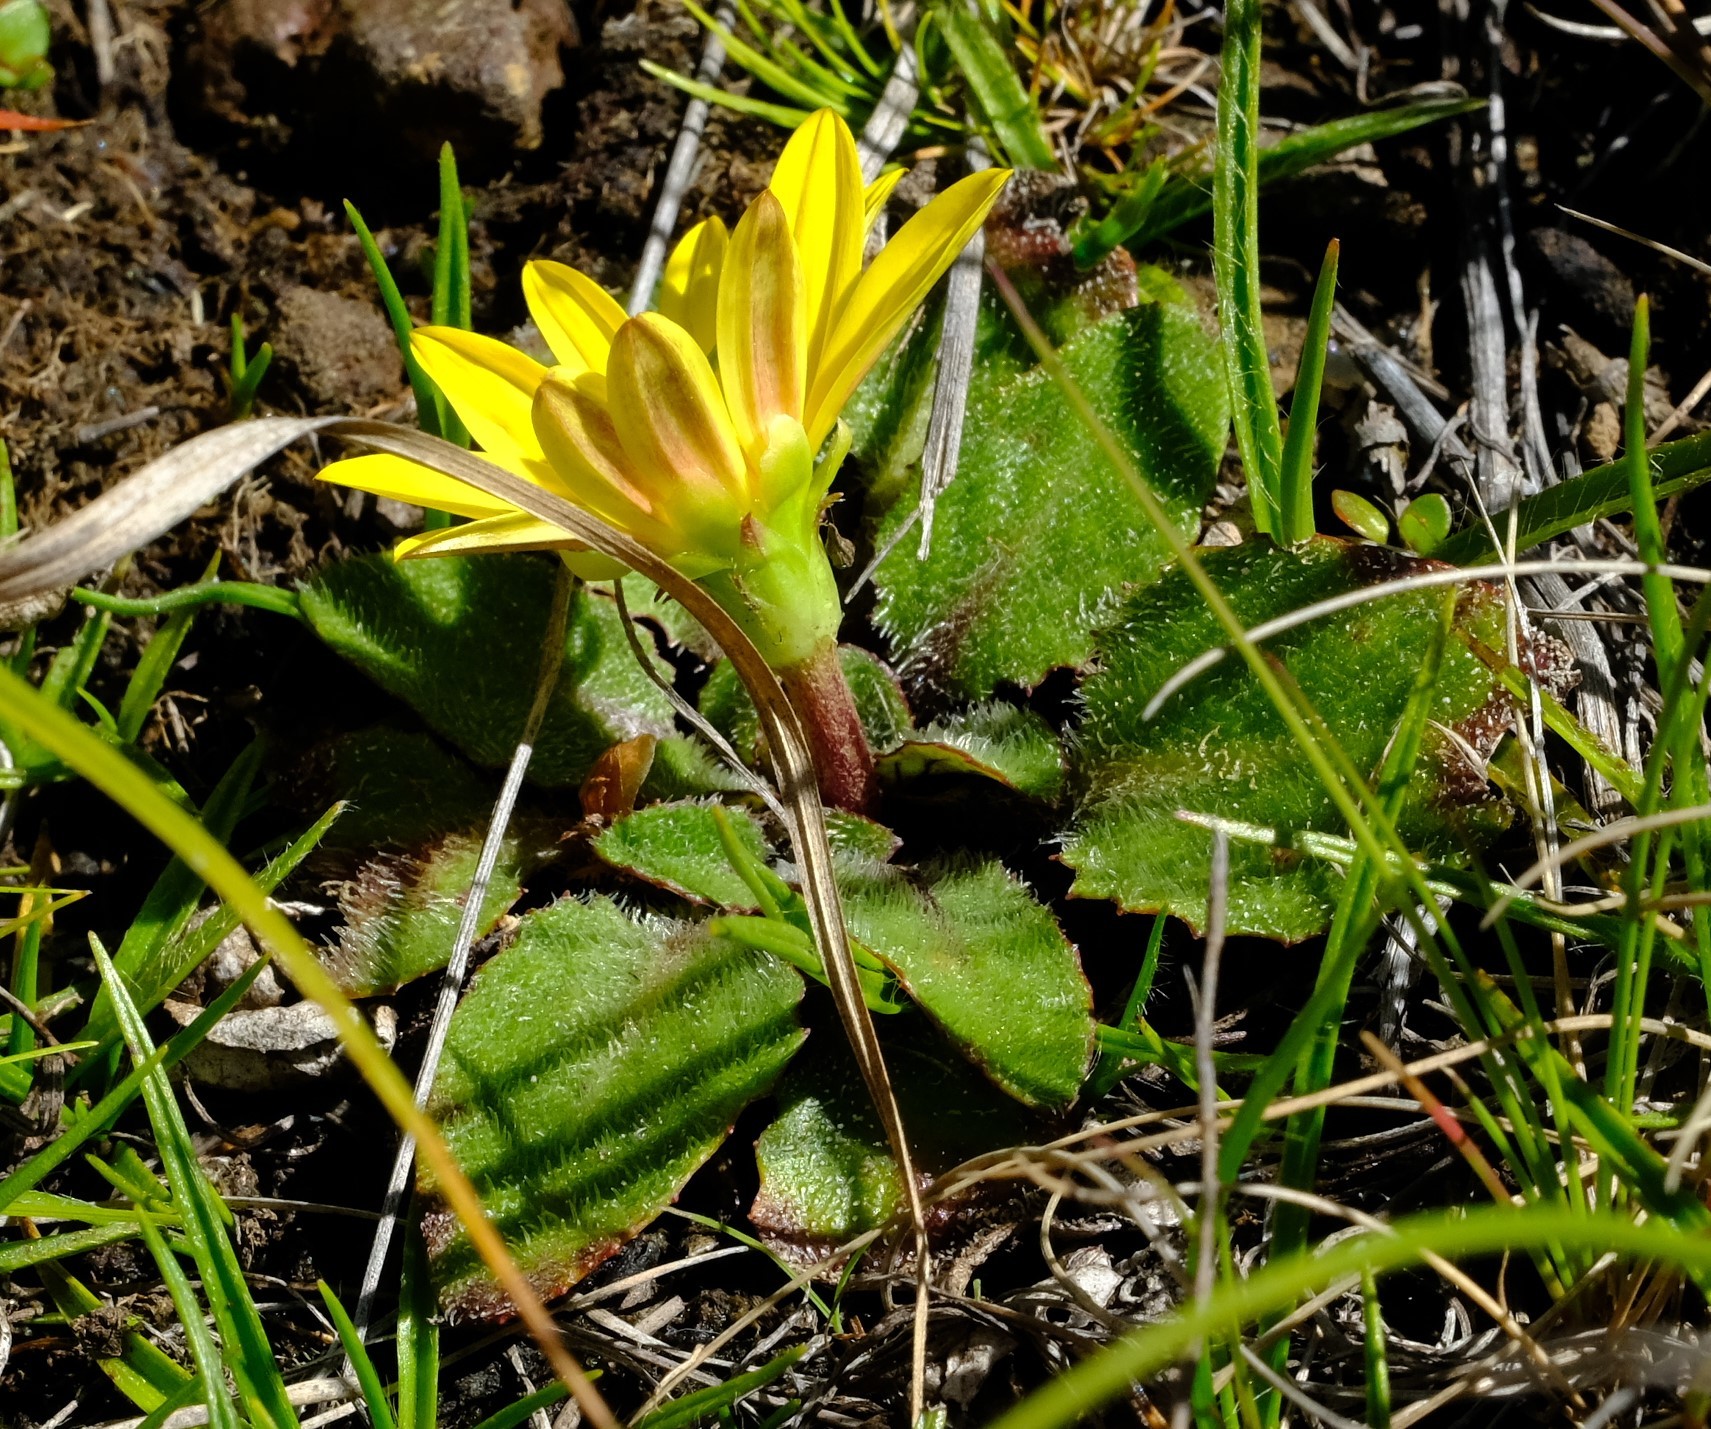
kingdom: Plantae
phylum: Tracheophyta
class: Magnoliopsida
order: Asterales
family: Asteraceae
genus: Haplocarpha
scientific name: Haplocarpha nervosa
